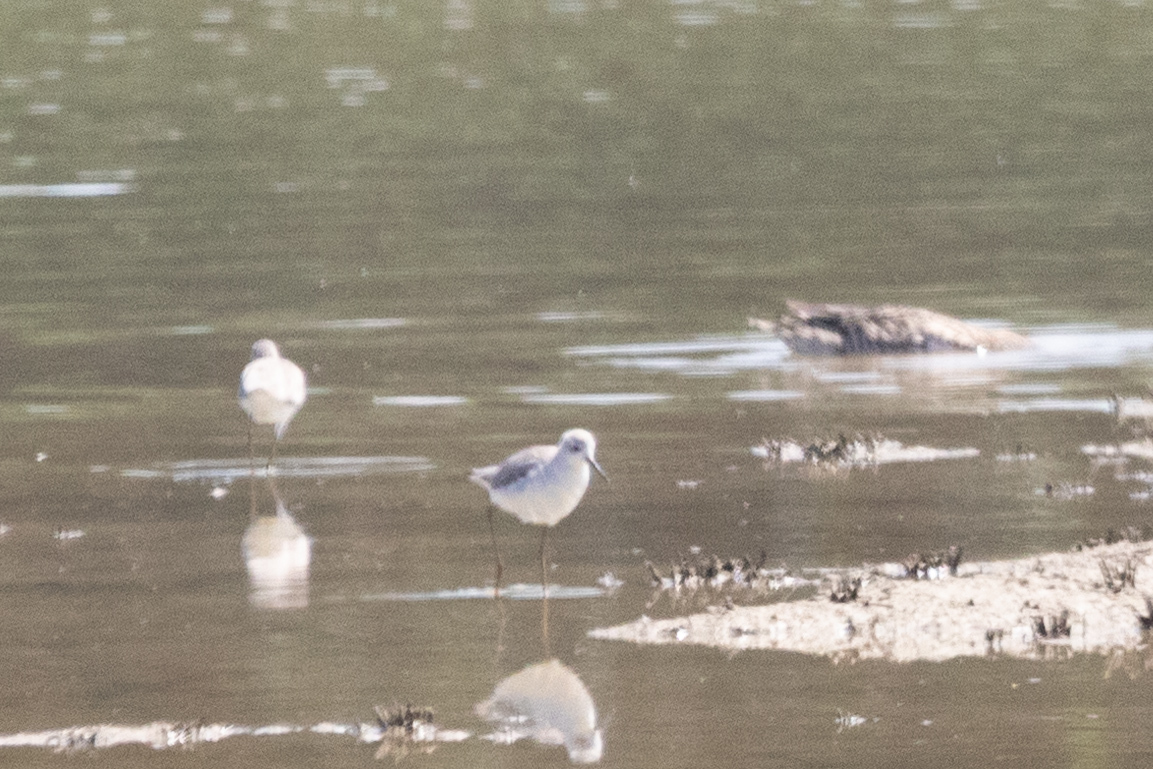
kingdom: Animalia
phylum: Chordata
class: Aves
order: Charadriiformes
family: Scolopacidae
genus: Tringa
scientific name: Tringa stagnatilis
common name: Marsh sandpiper
